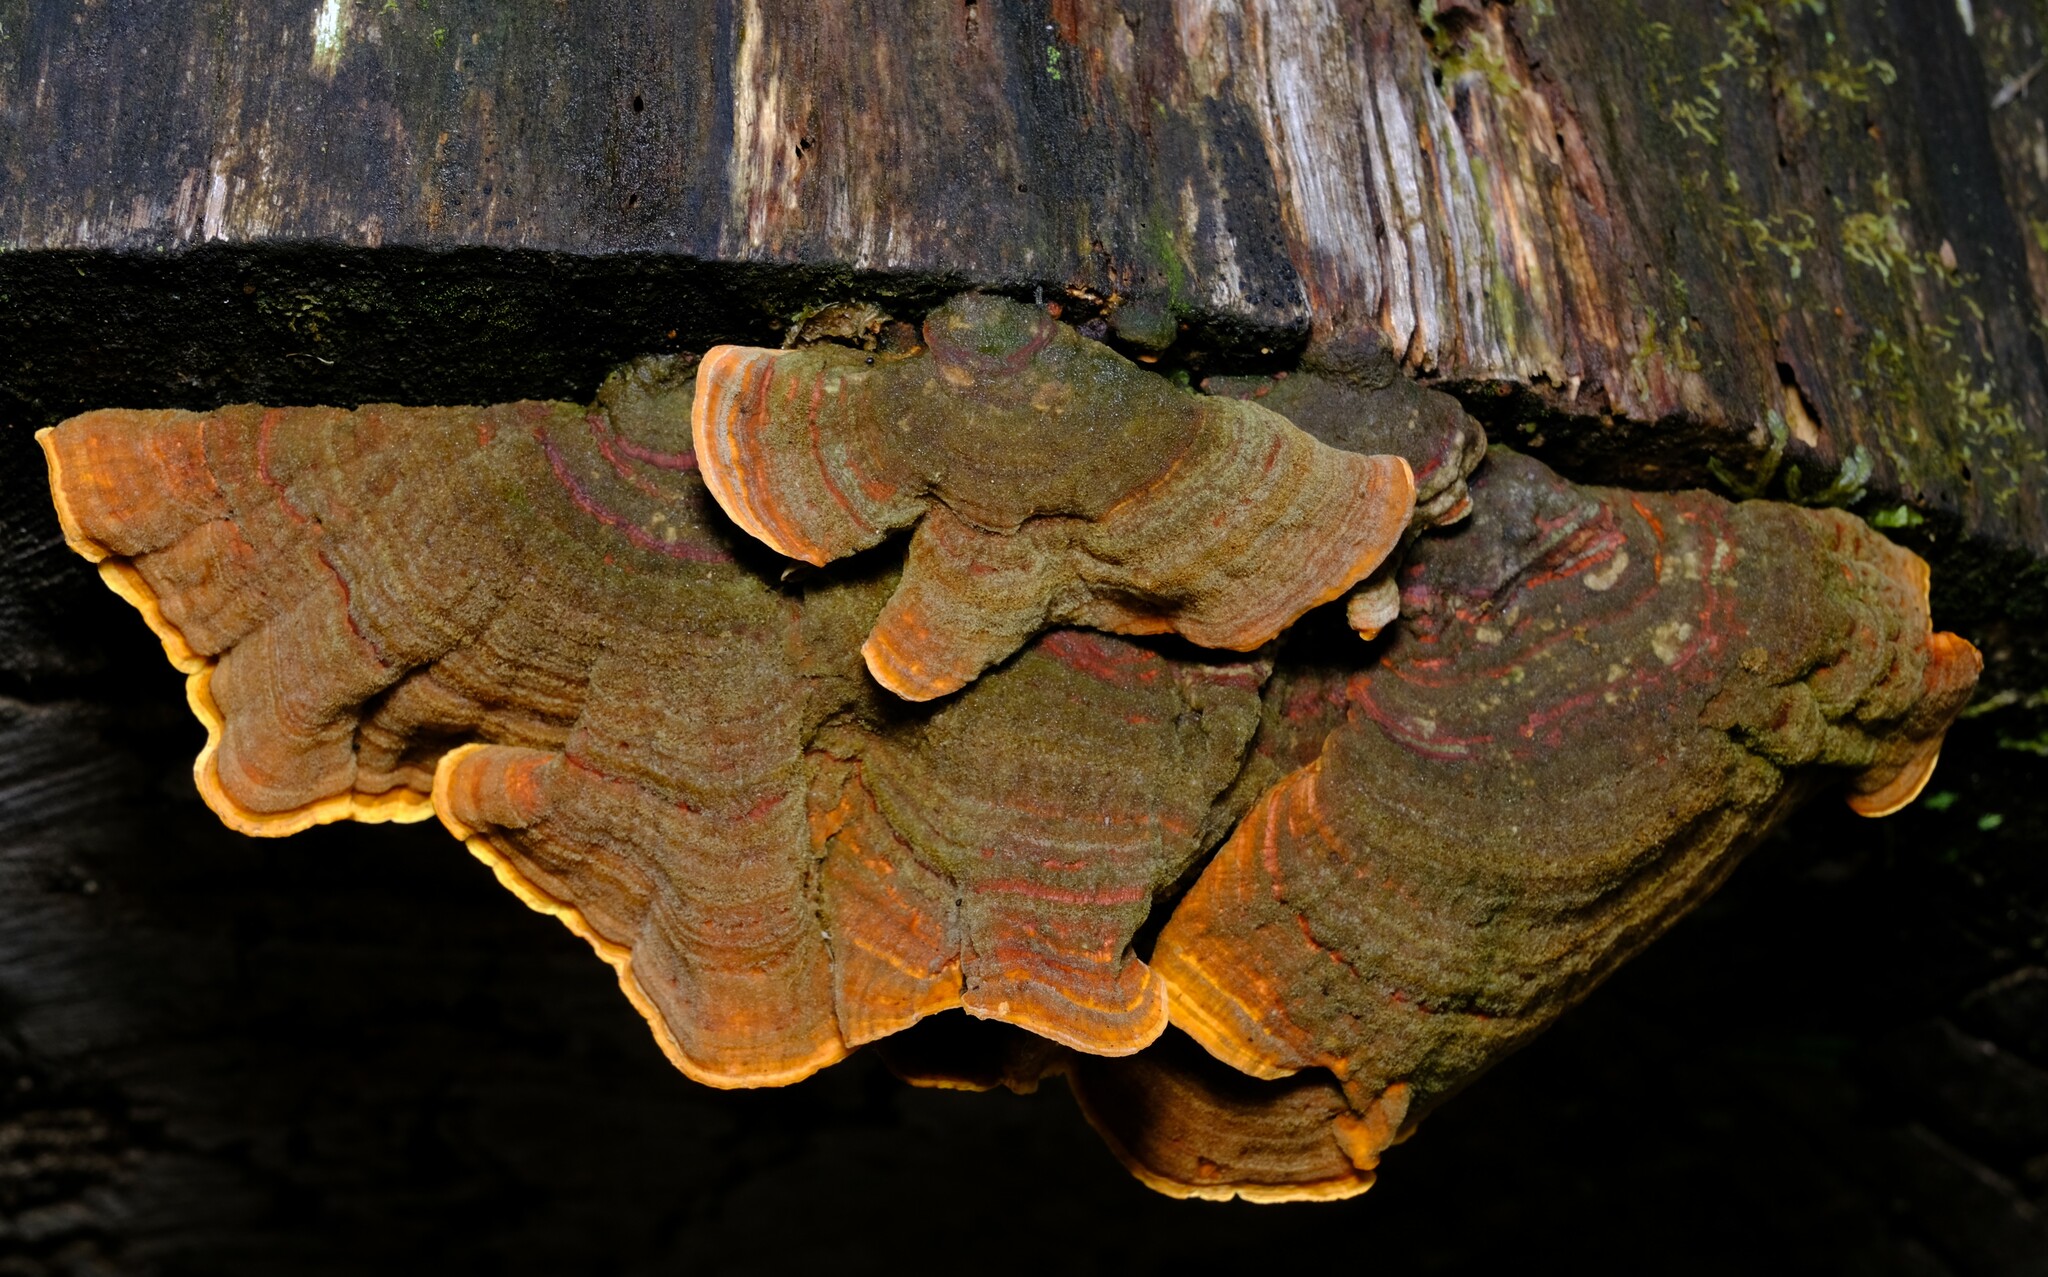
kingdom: Fungi
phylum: Basidiomycota
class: Agaricomycetes
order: Russulales
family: Stereaceae
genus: Stereum
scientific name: Stereum versicolor
